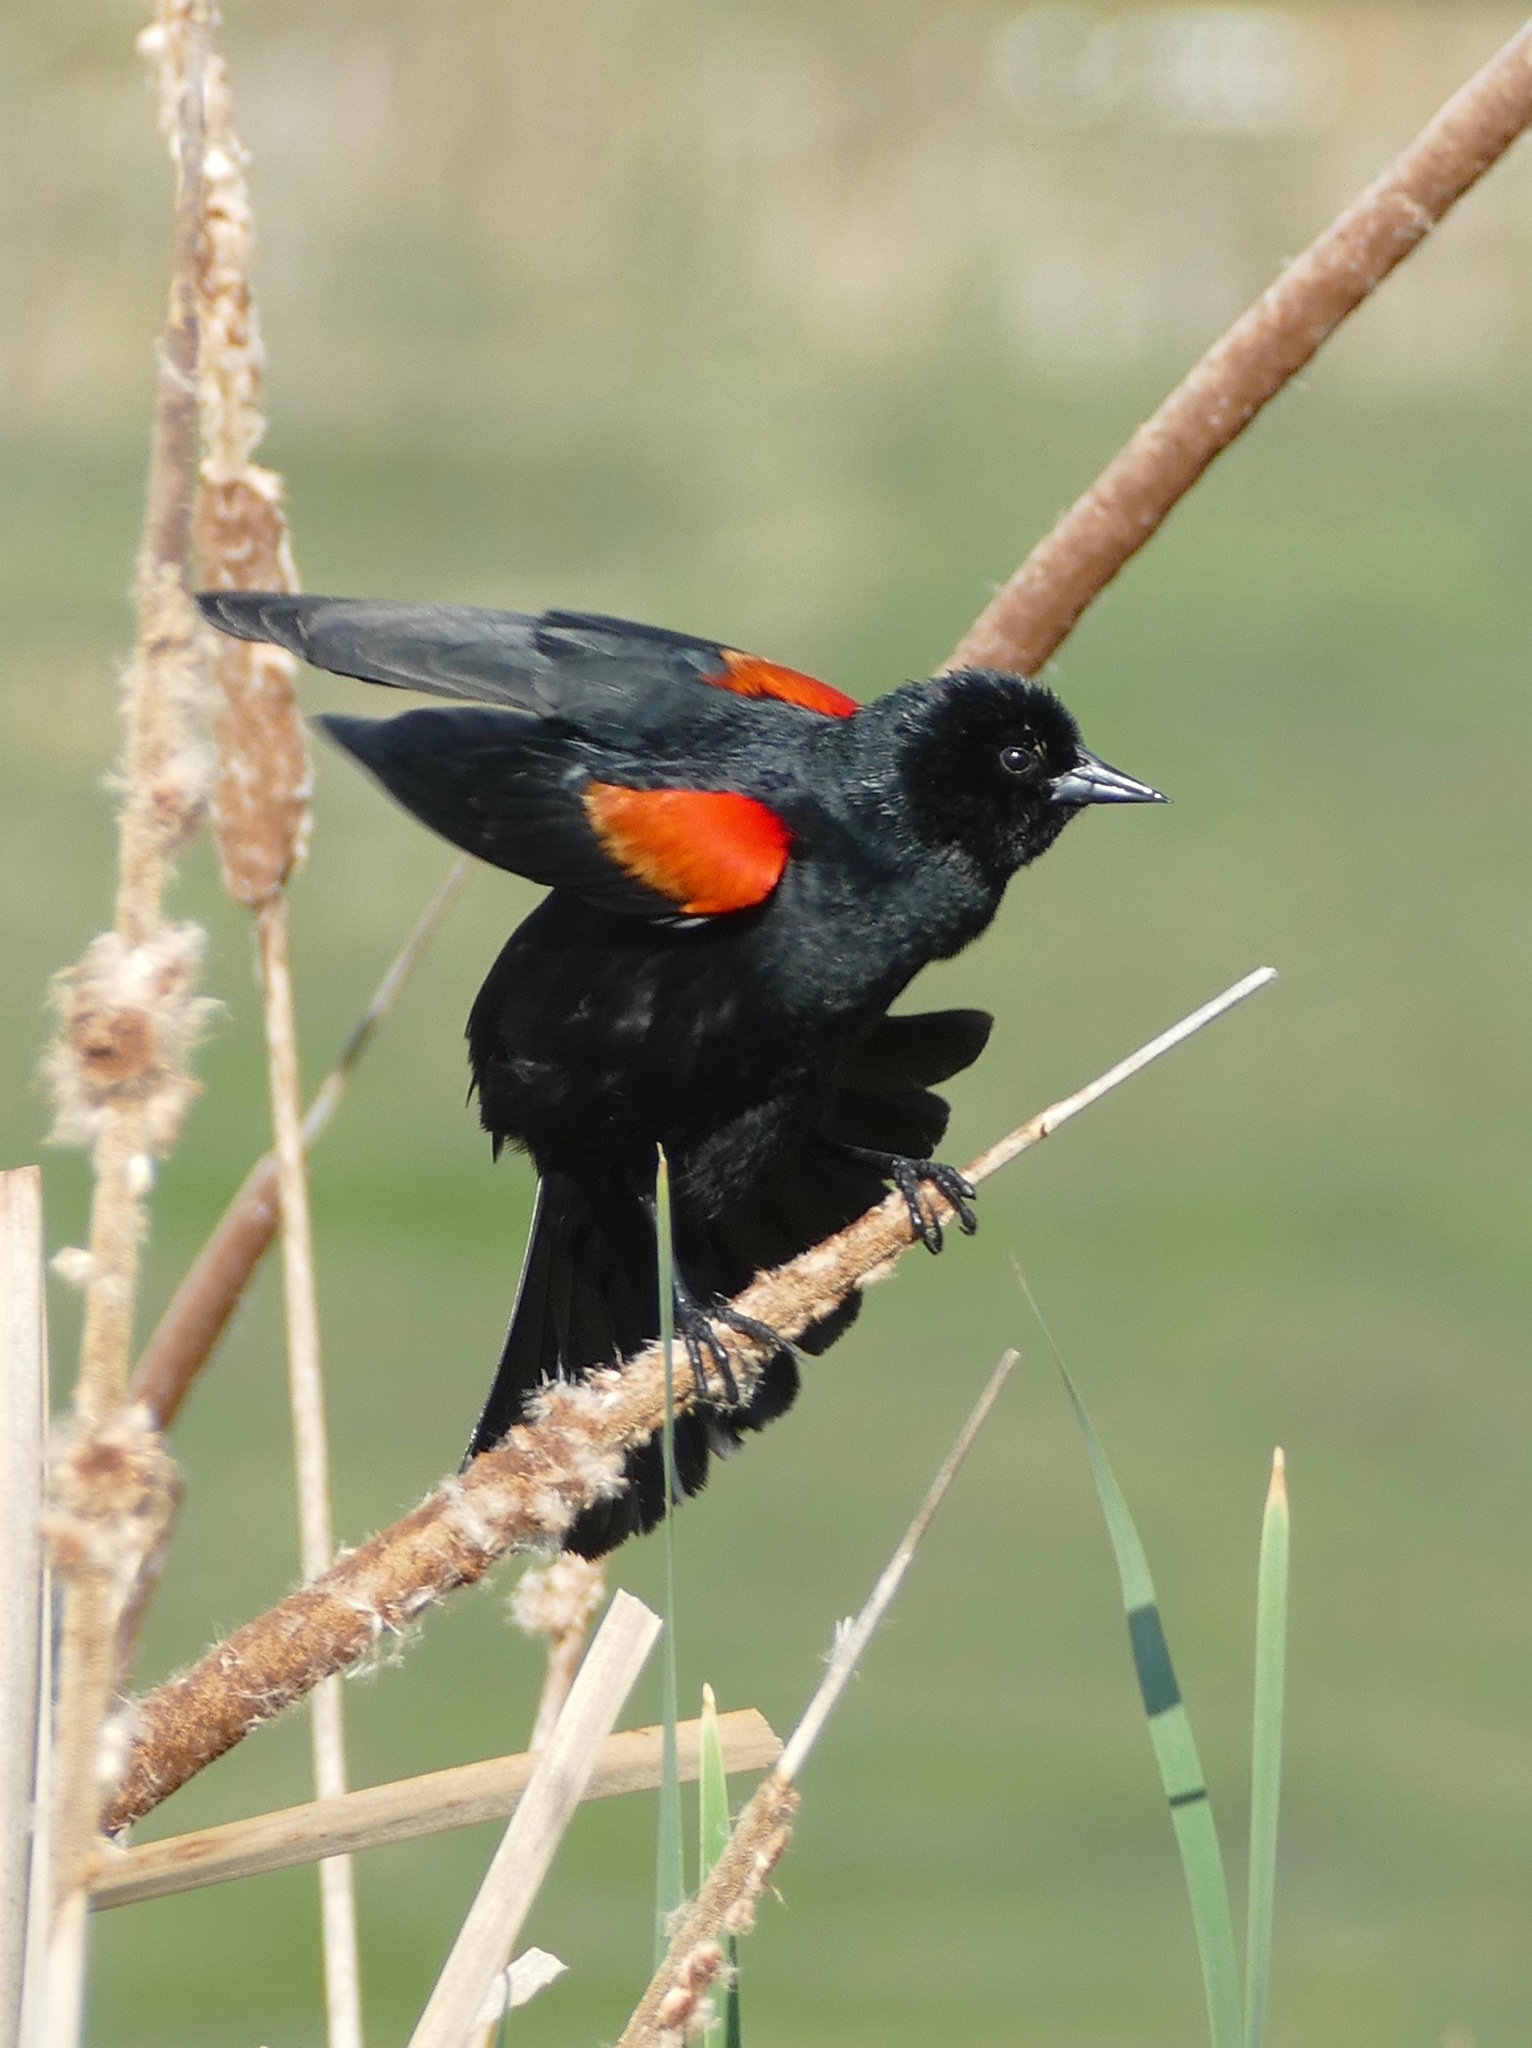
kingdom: Animalia
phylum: Chordata
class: Aves
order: Passeriformes
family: Icteridae
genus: Agelaius
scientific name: Agelaius phoeniceus
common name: Red-winged blackbird
